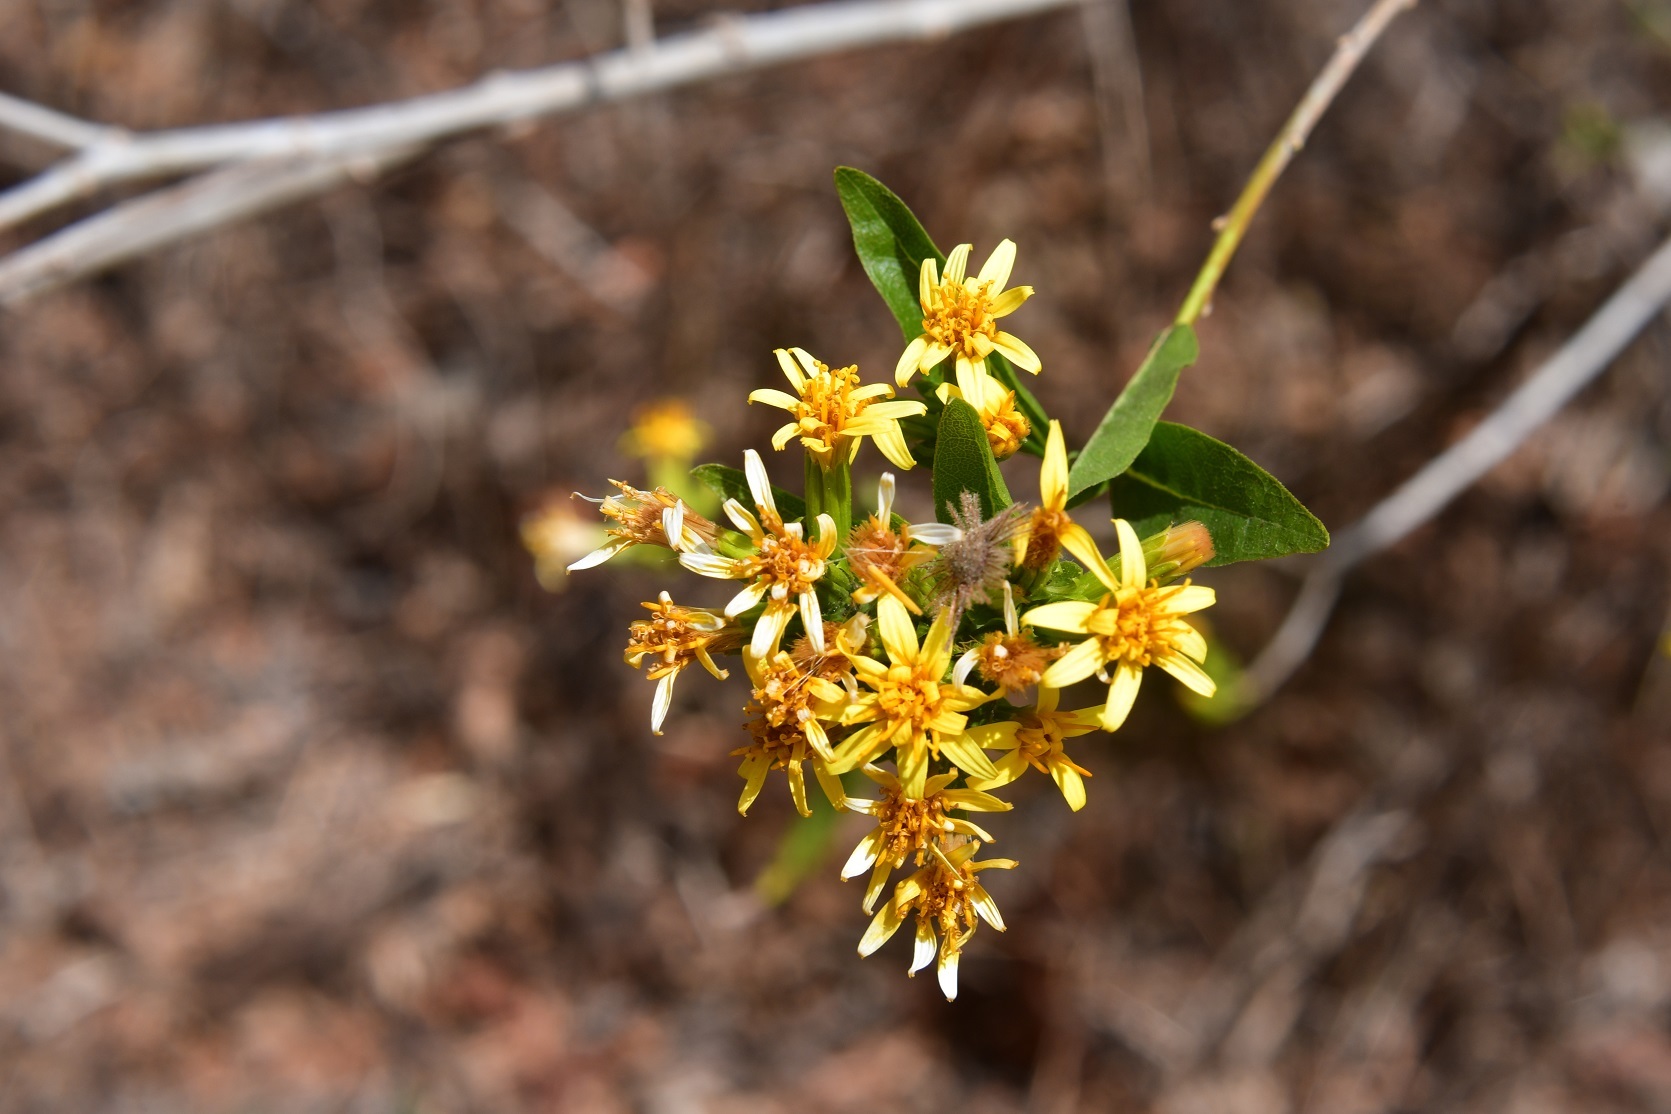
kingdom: Plantae
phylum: Tracheophyta
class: Magnoliopsida
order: Asterales
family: Asteraceae
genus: Trixis
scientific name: Trixis inula
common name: Tropical threefold
